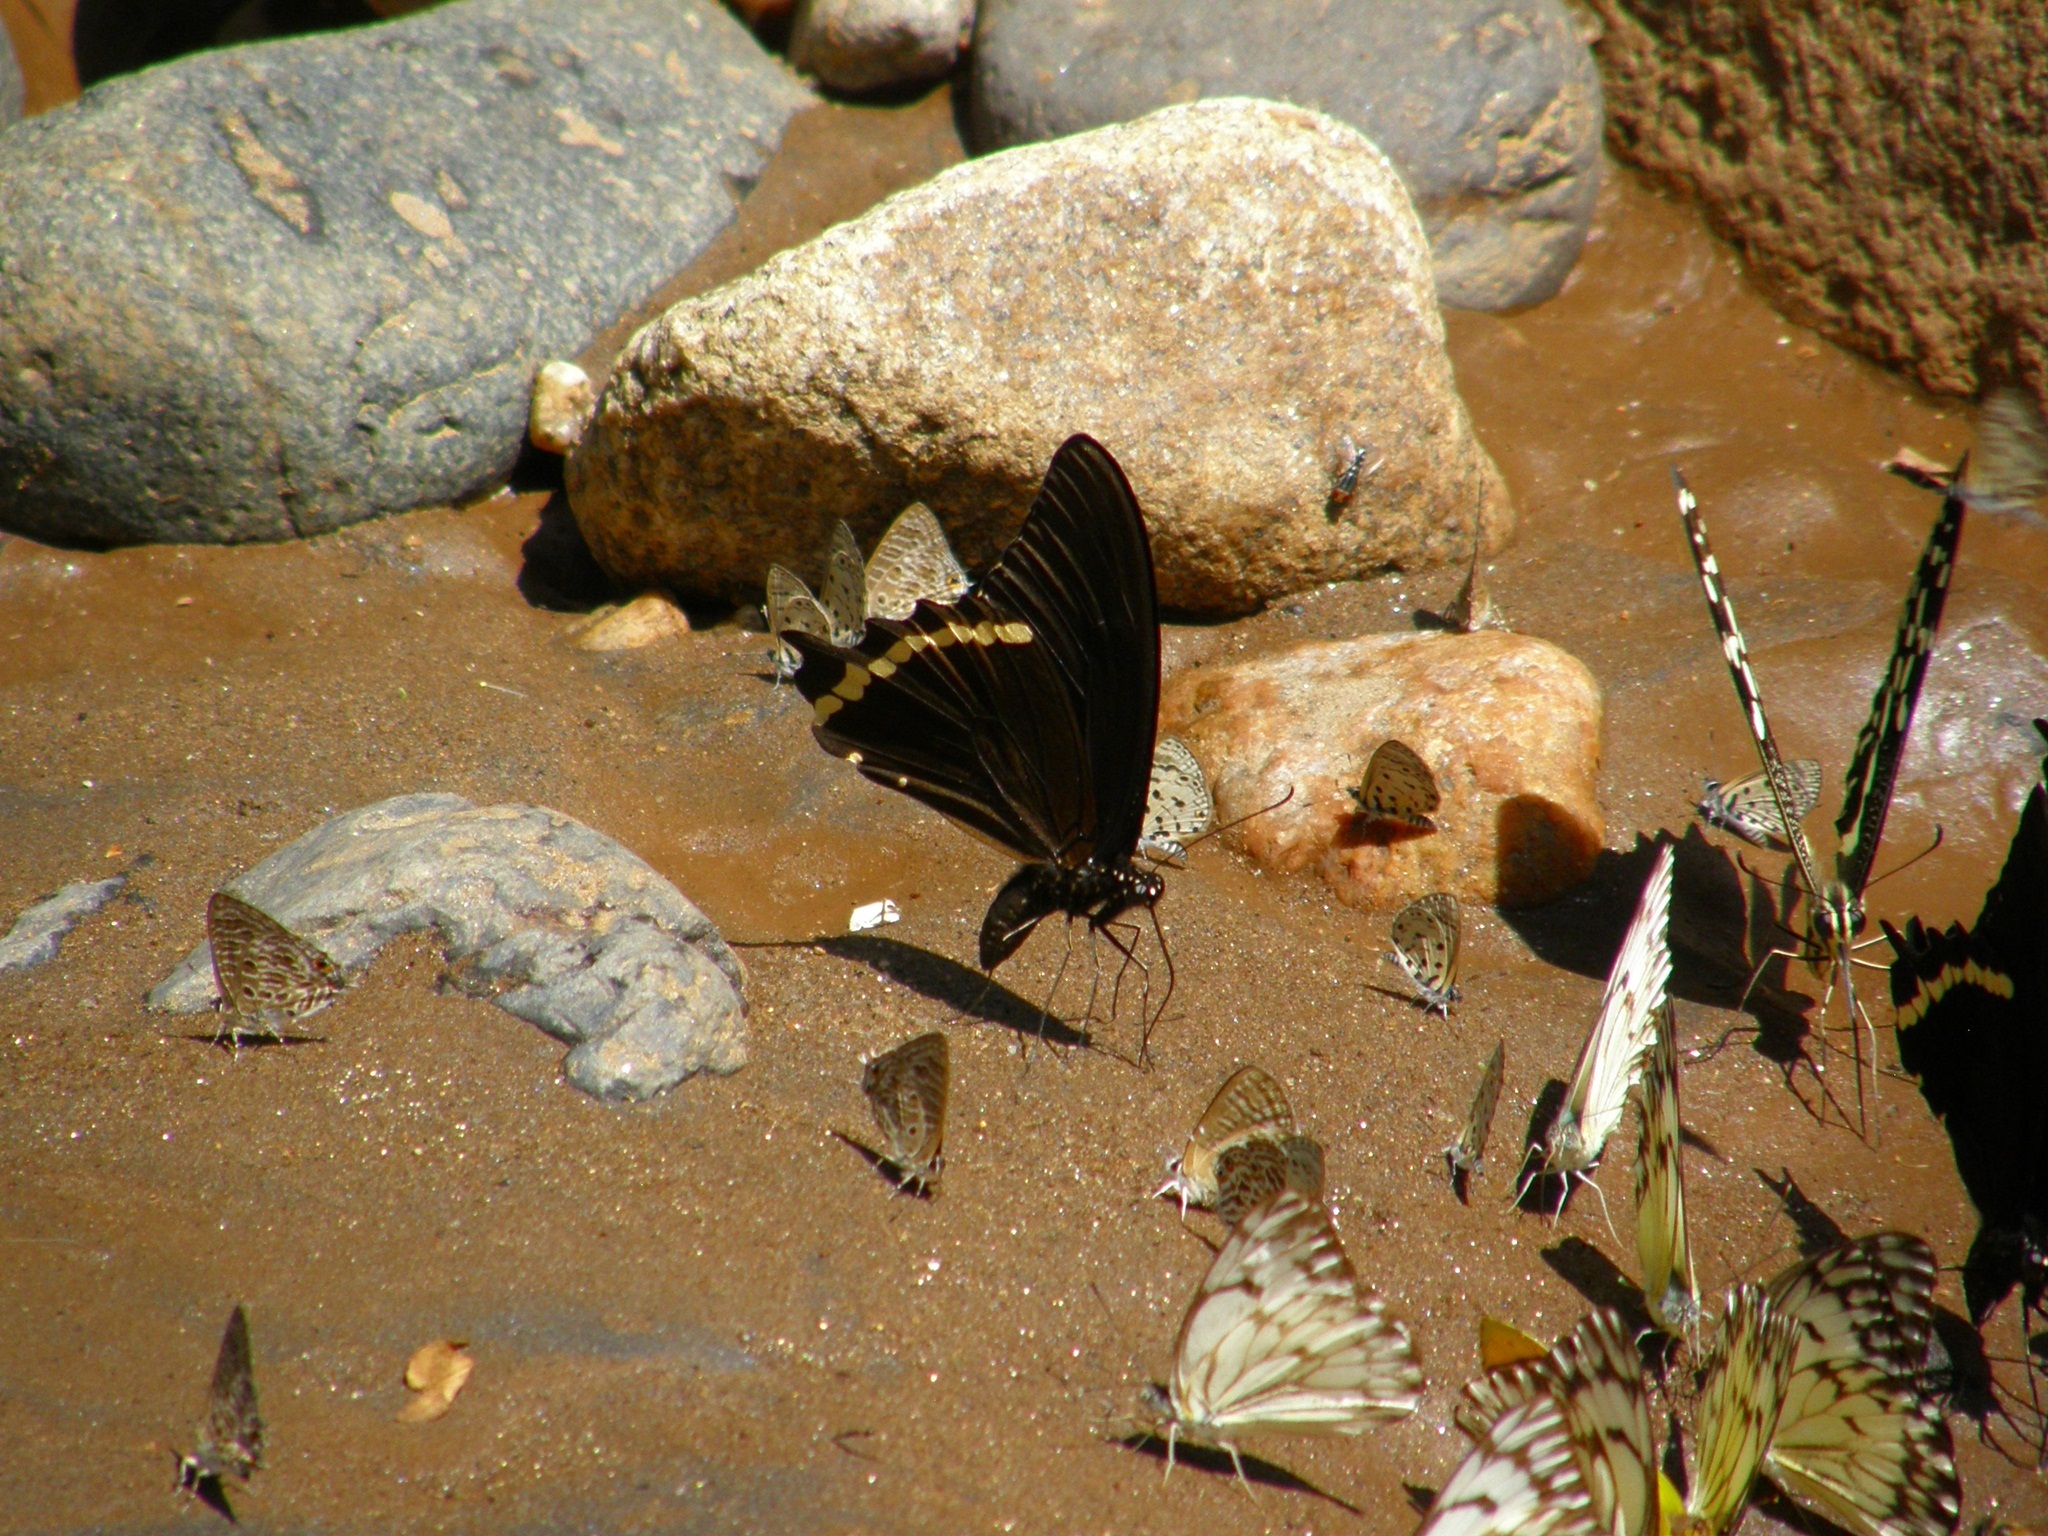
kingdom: Animalia
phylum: Arthropoda
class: Insecta
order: Lepidoptera
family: Papilionidae
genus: Papilio
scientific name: Papilio nireus
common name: Greenbanded swallowtail
